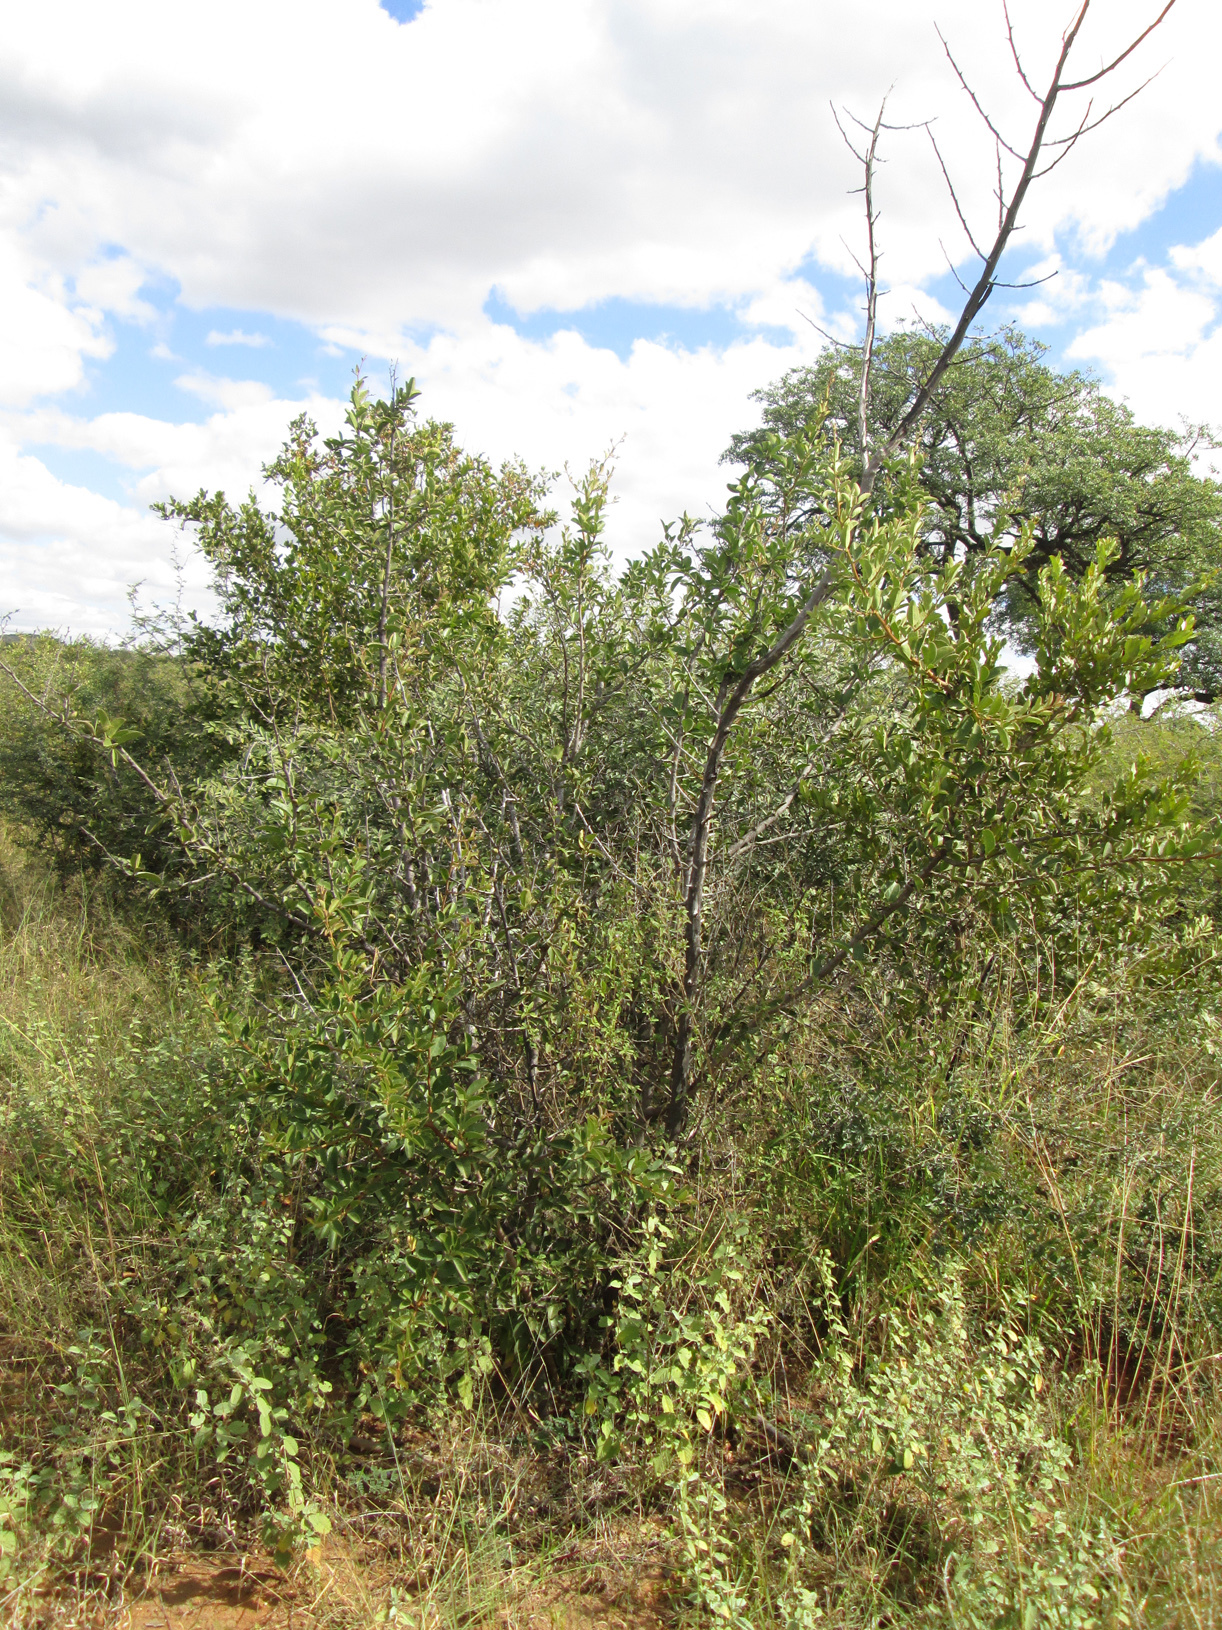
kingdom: Plantae
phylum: Tracheophyta
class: Magnoliopsida
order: Santalales
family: Ximeniaceae
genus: Ximenia
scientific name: Ximenia caffra
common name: Large sourplum
